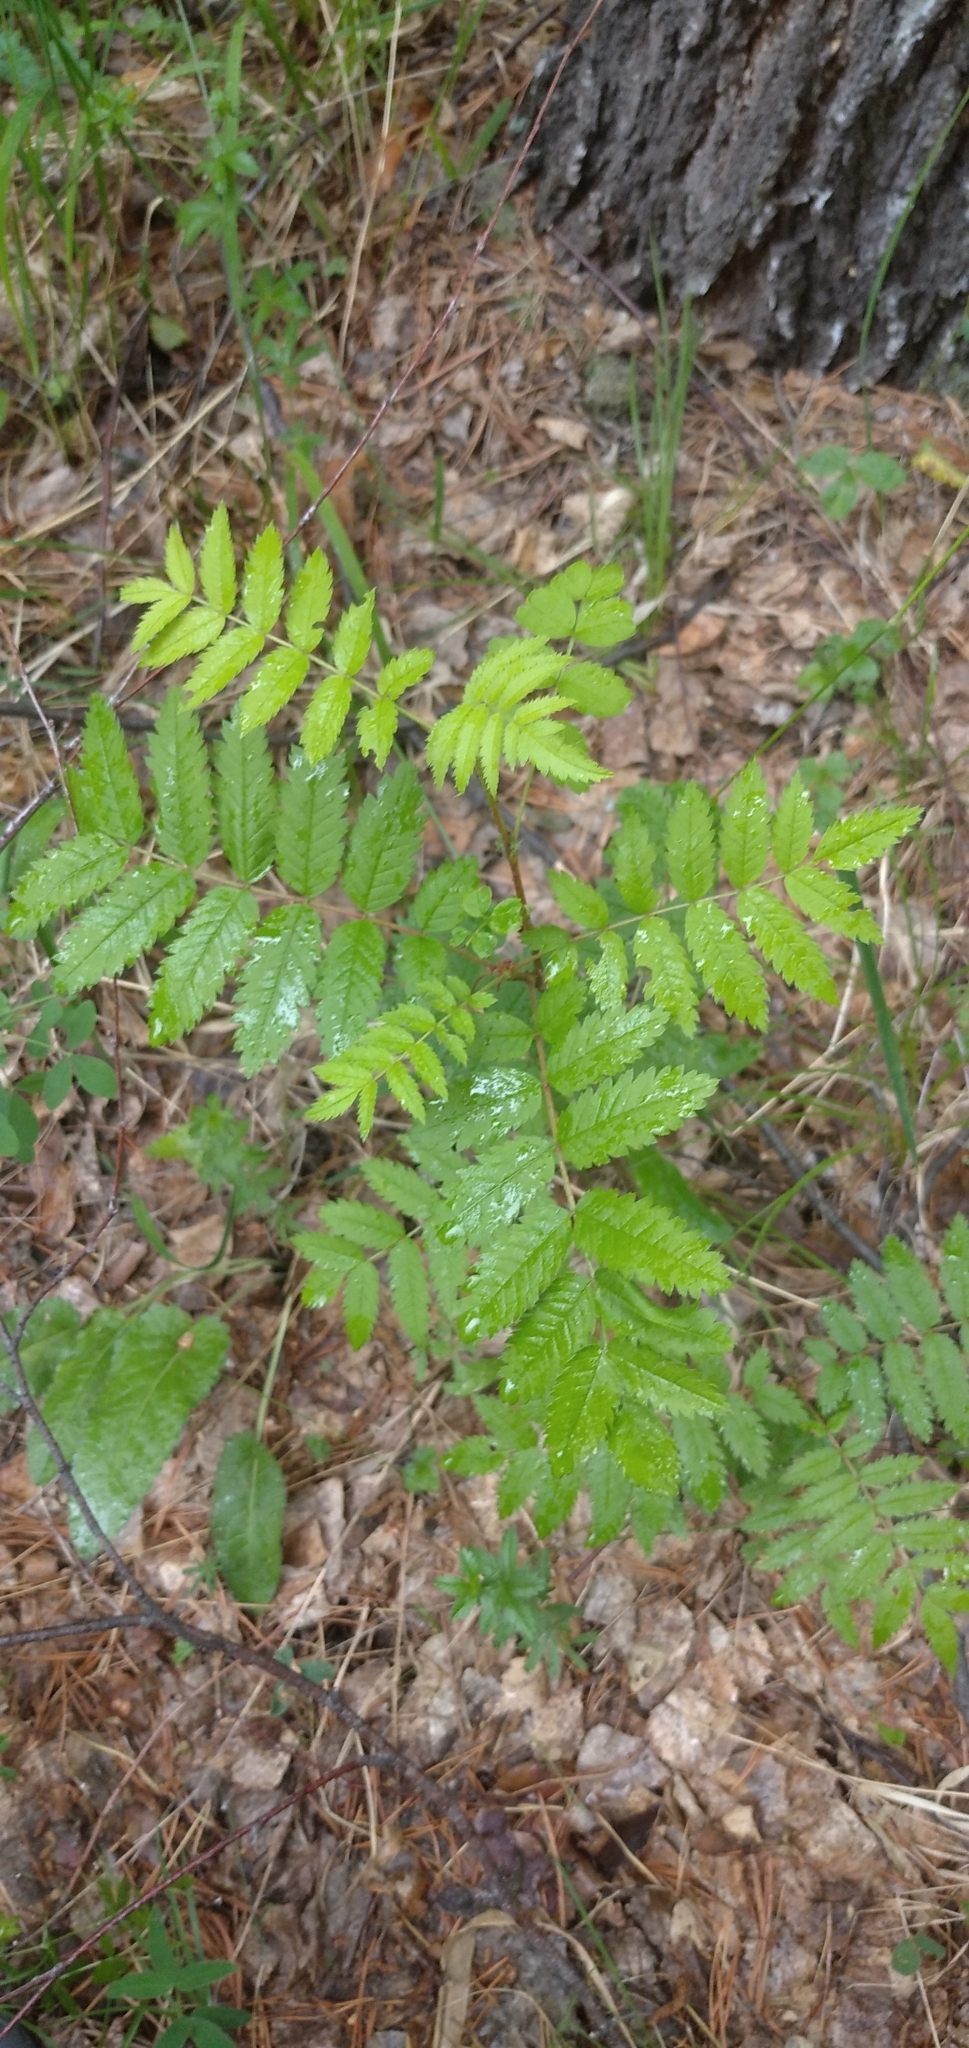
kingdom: Plantae
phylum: Tracheophyta
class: Magnoliopsida
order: Rosales
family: Rosaceae
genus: Sorbus
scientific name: Sorbus aucuparia
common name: Rowan
